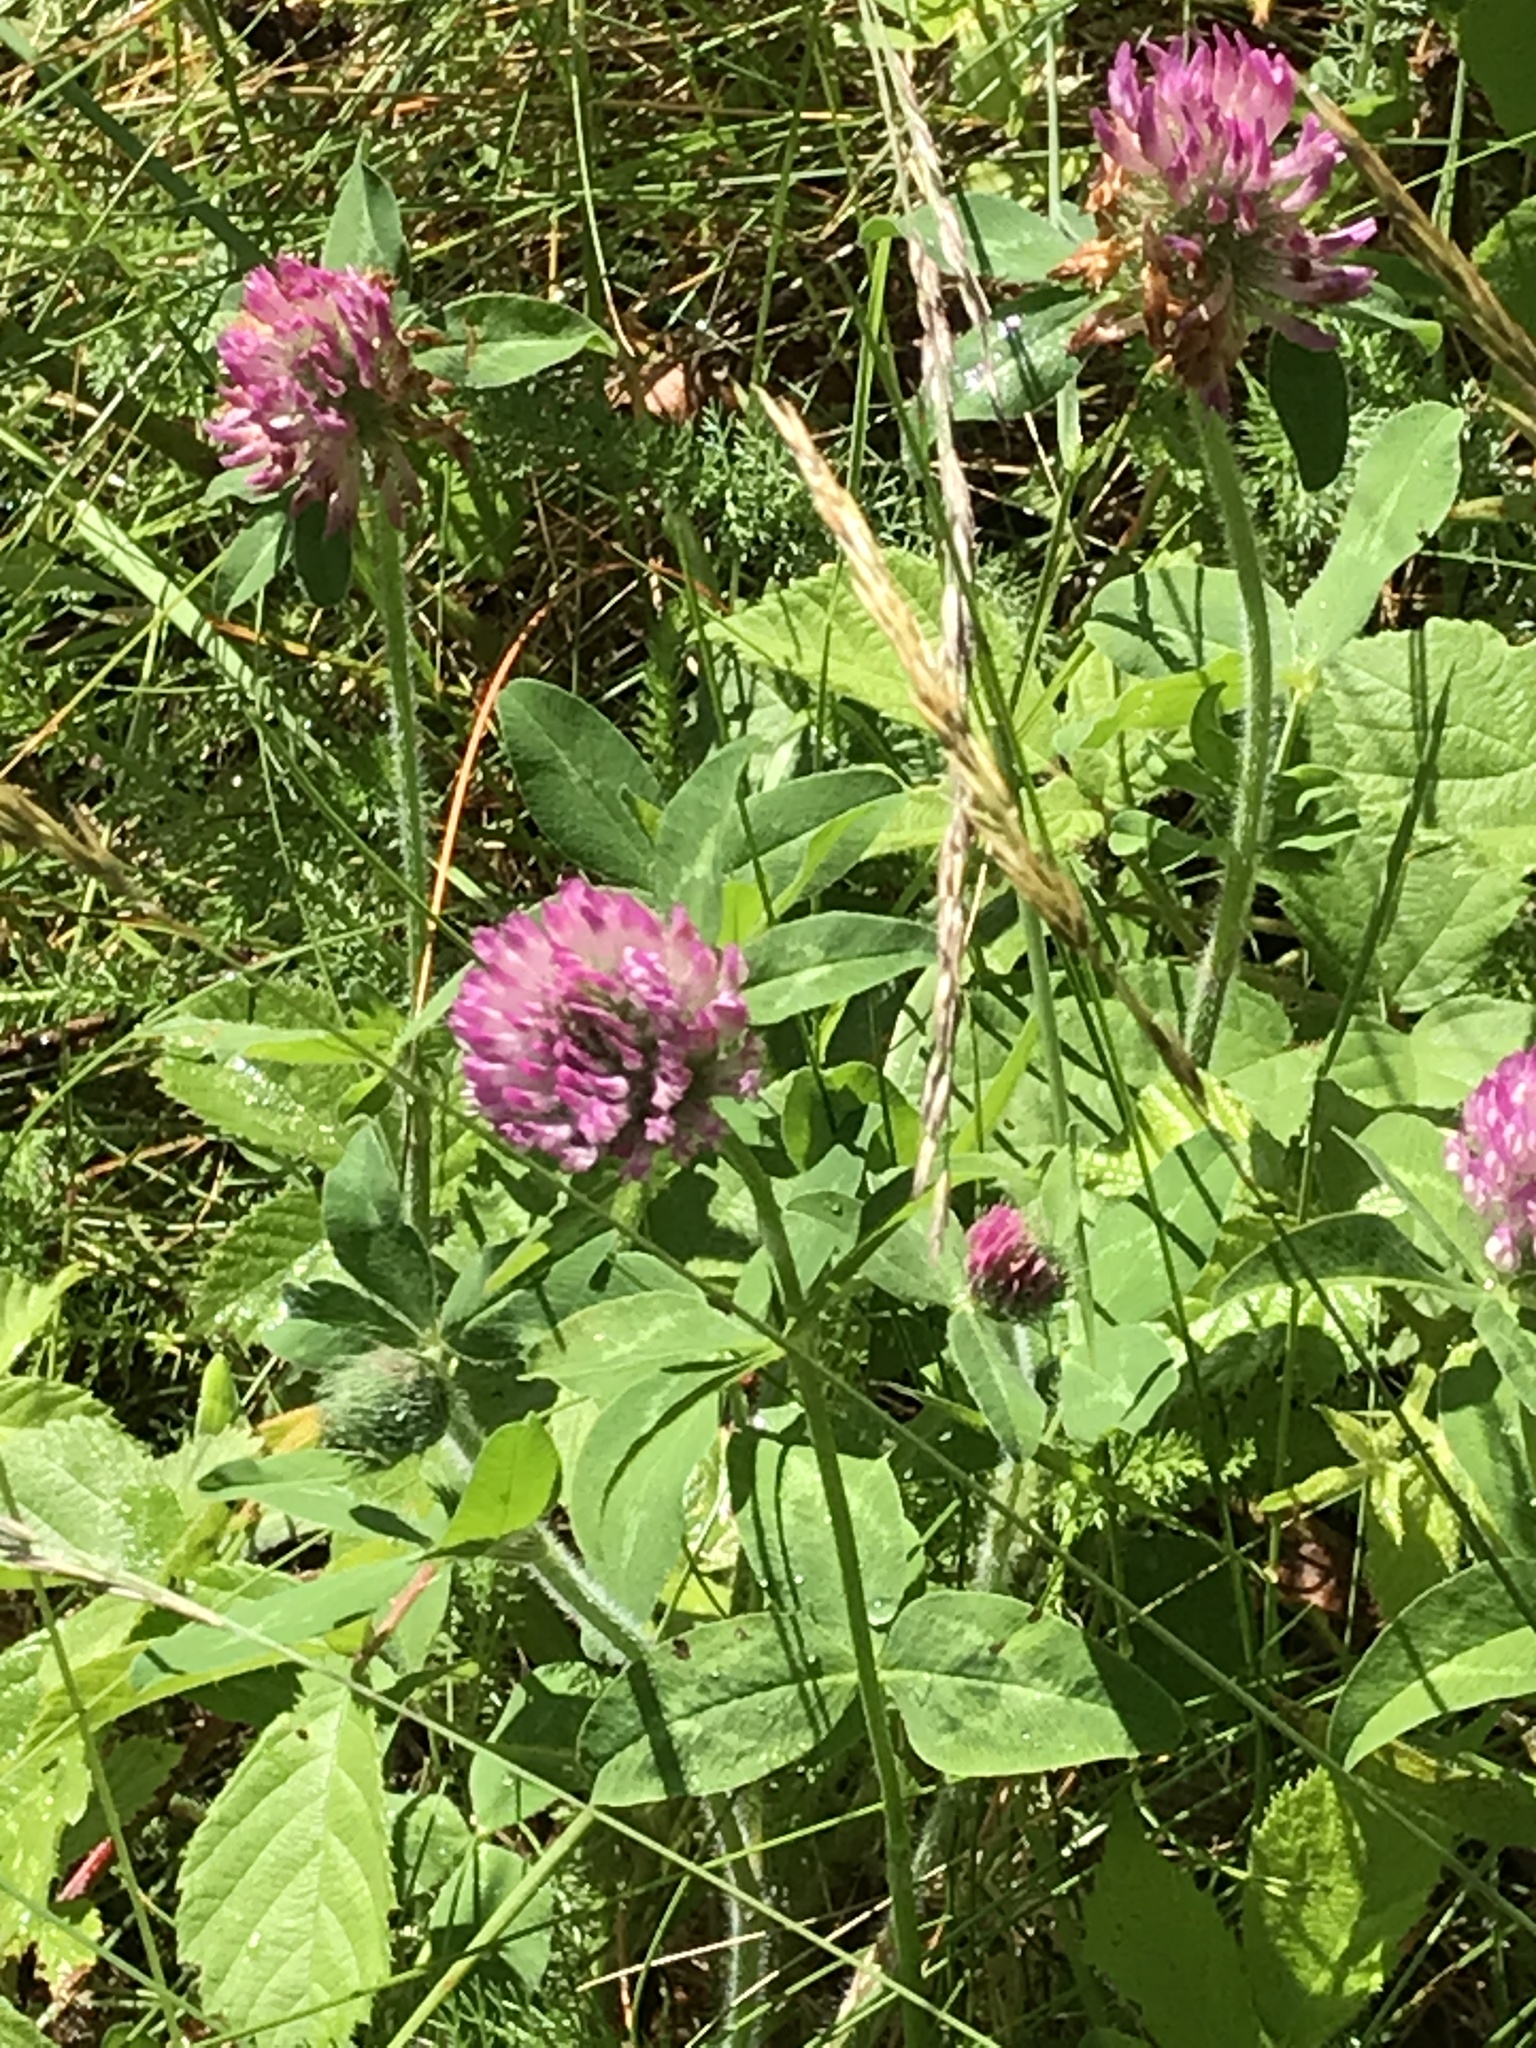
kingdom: Plantae
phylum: Tracheophyta
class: Magnoliopsida
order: Fabales
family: Fabaceae
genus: Trifolium
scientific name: Trifolium pratense
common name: Red clover
